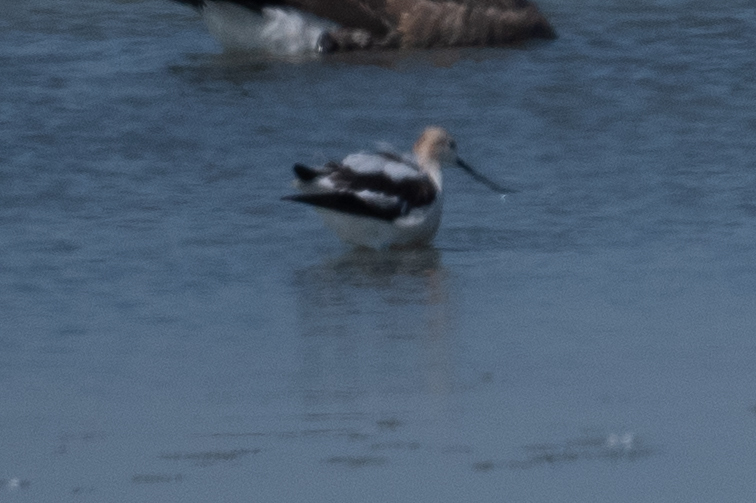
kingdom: Animalia
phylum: Chordata
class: Aves
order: Charadriiformes
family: Recurvirostridae
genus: Recurvirostra
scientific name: Recurvirostra americana
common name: American avocet
